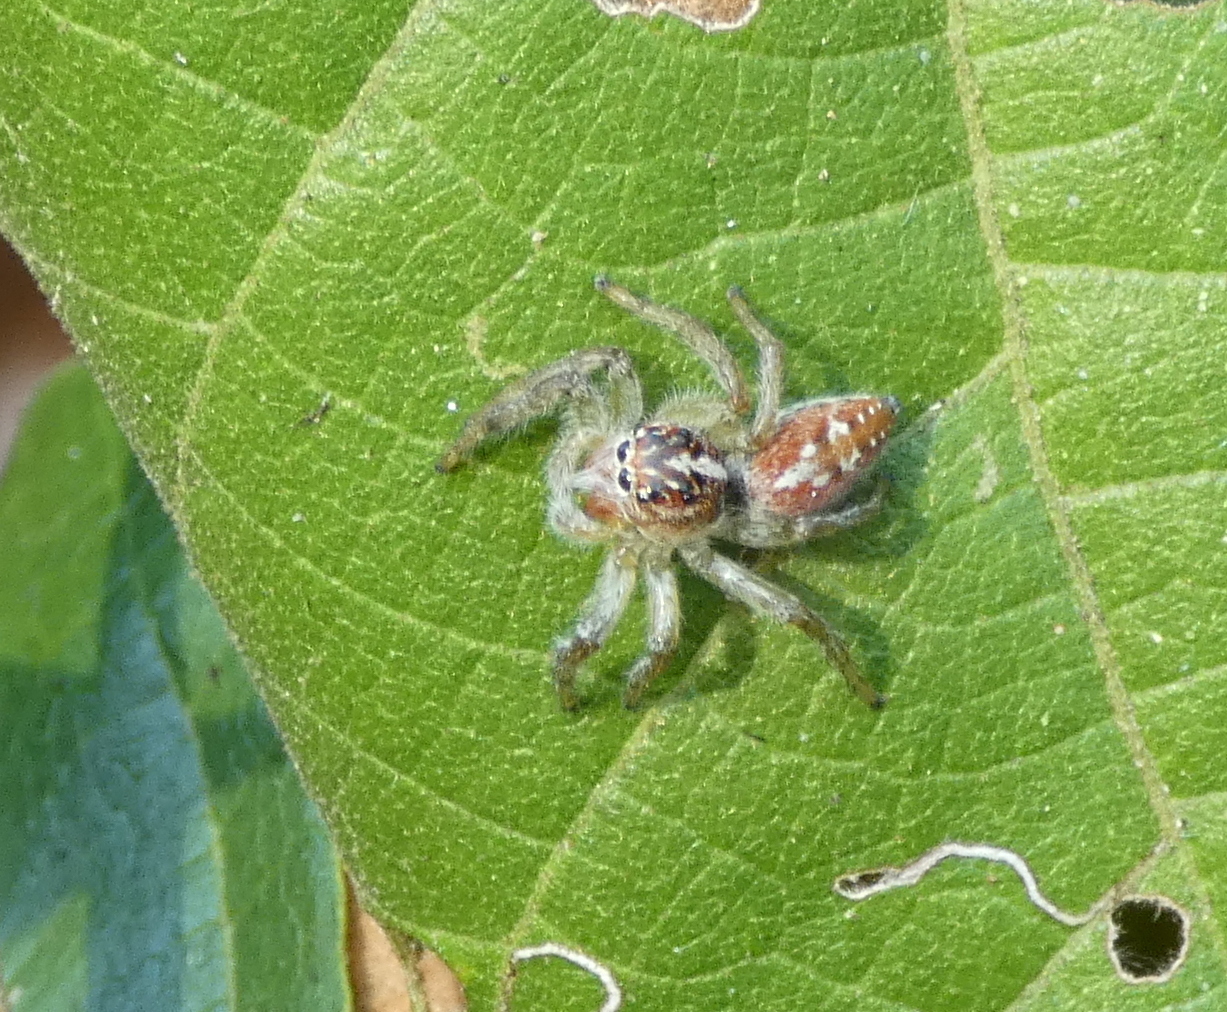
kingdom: Animalia
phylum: Arthropoda
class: Arachnida
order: Araneae
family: Salticidae
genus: Frigga
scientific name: Frigga
